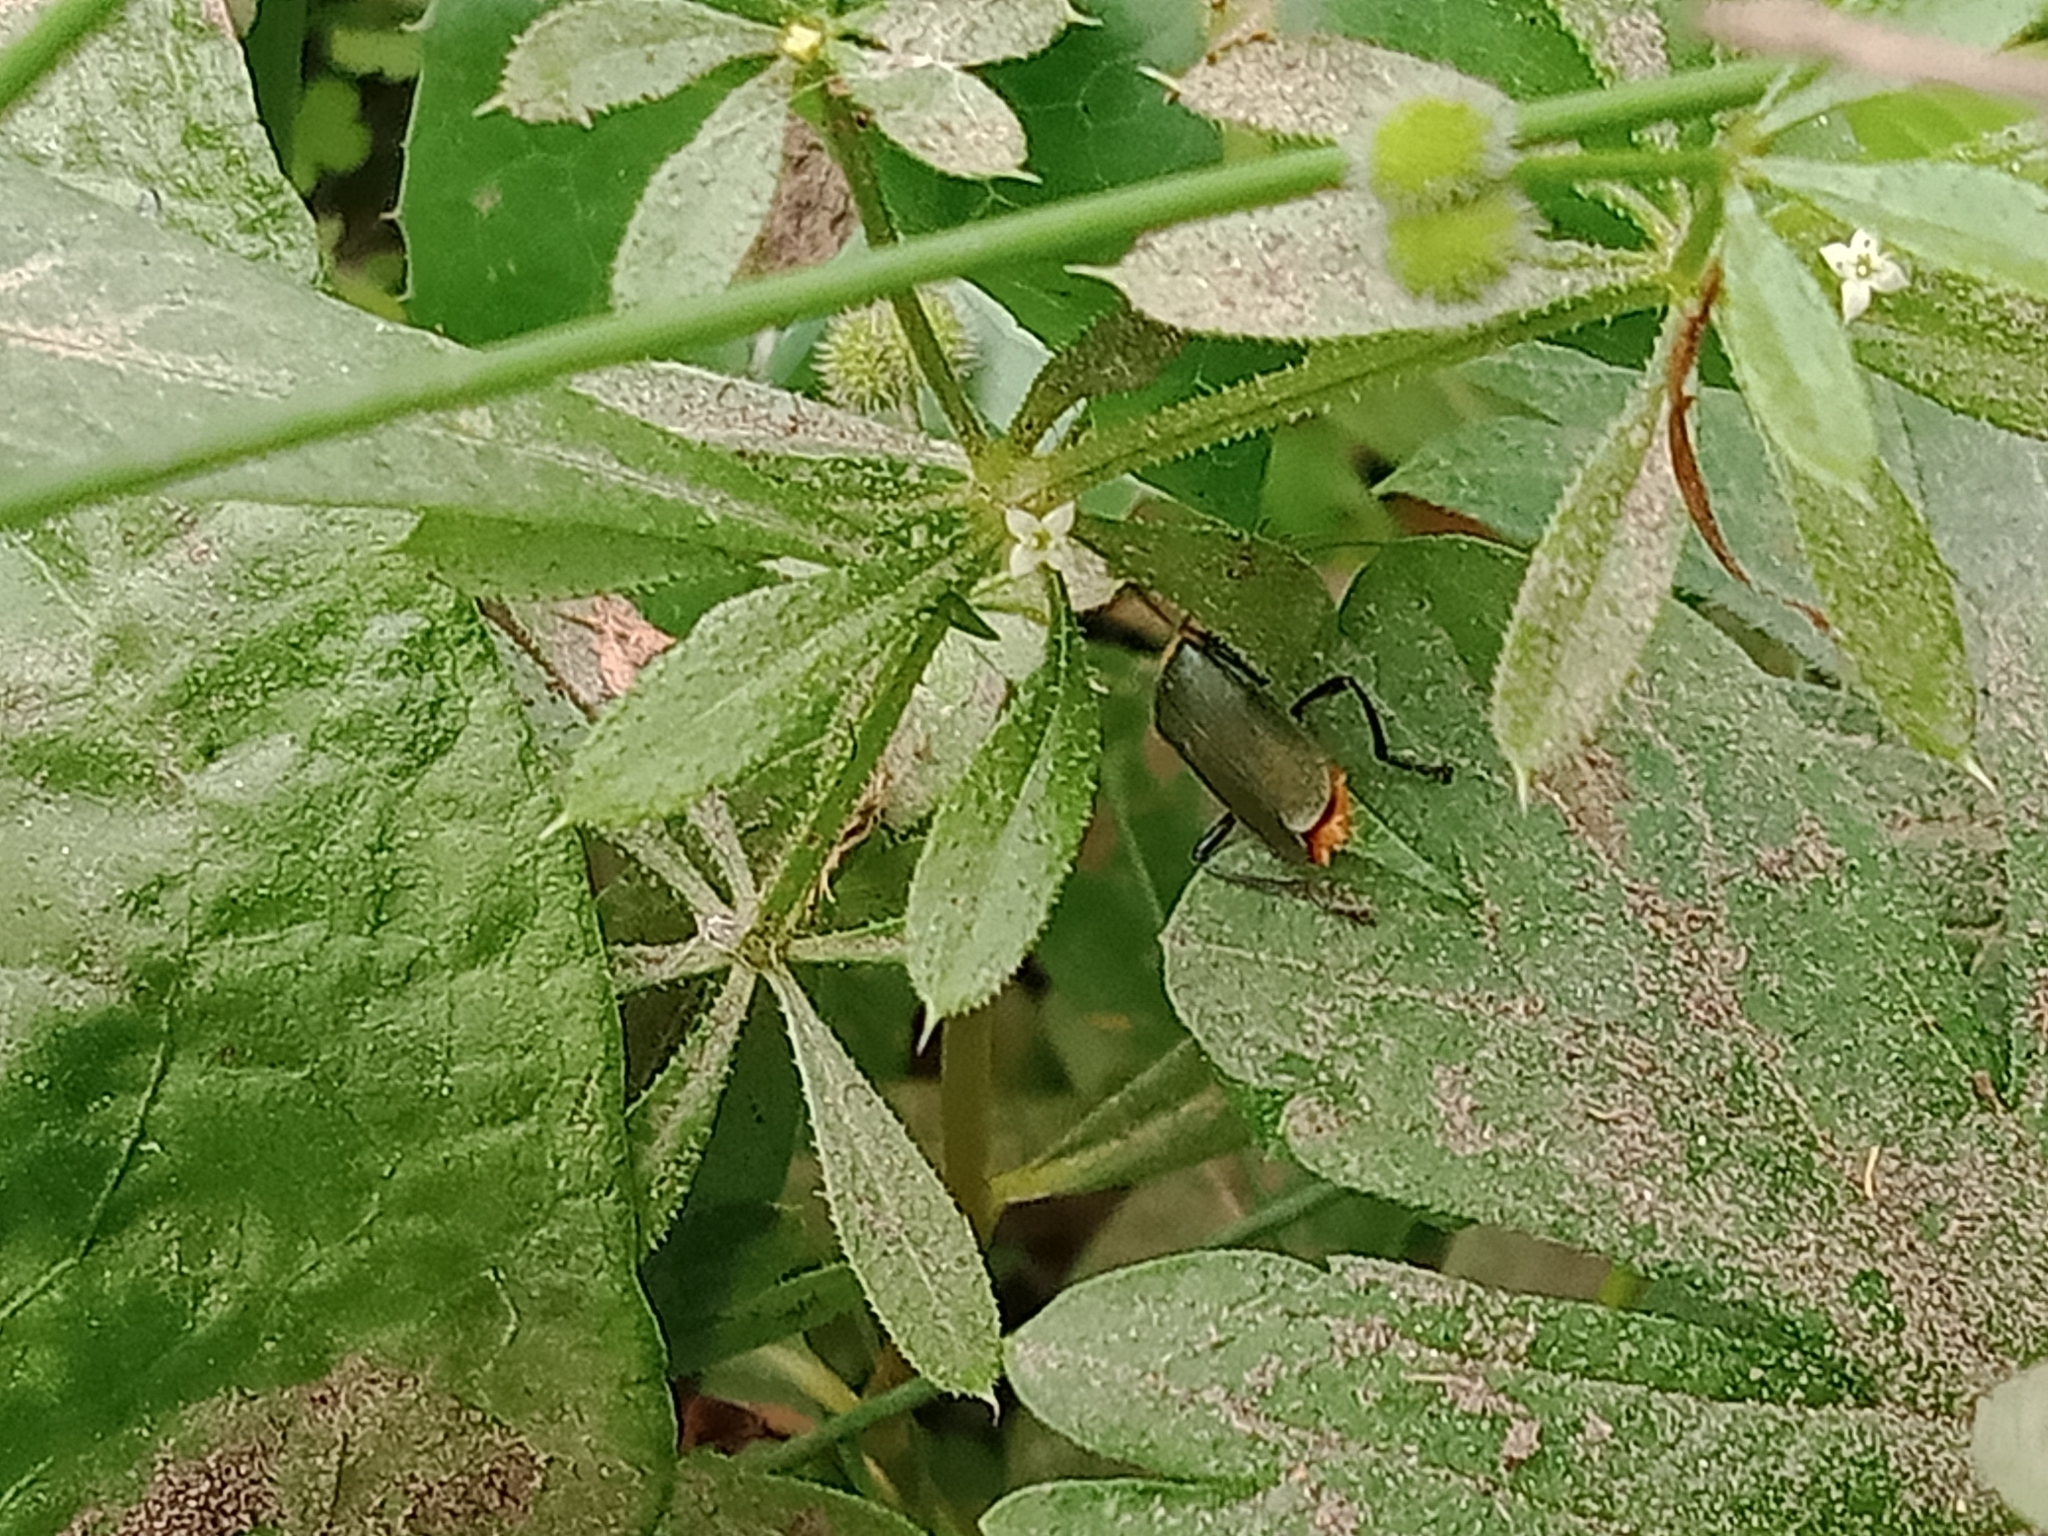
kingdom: Animalia
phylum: Arthropoda
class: Insecta
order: Coleoptera
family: Cantharidae
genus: Chauliognathus
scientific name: Chauliognathus
